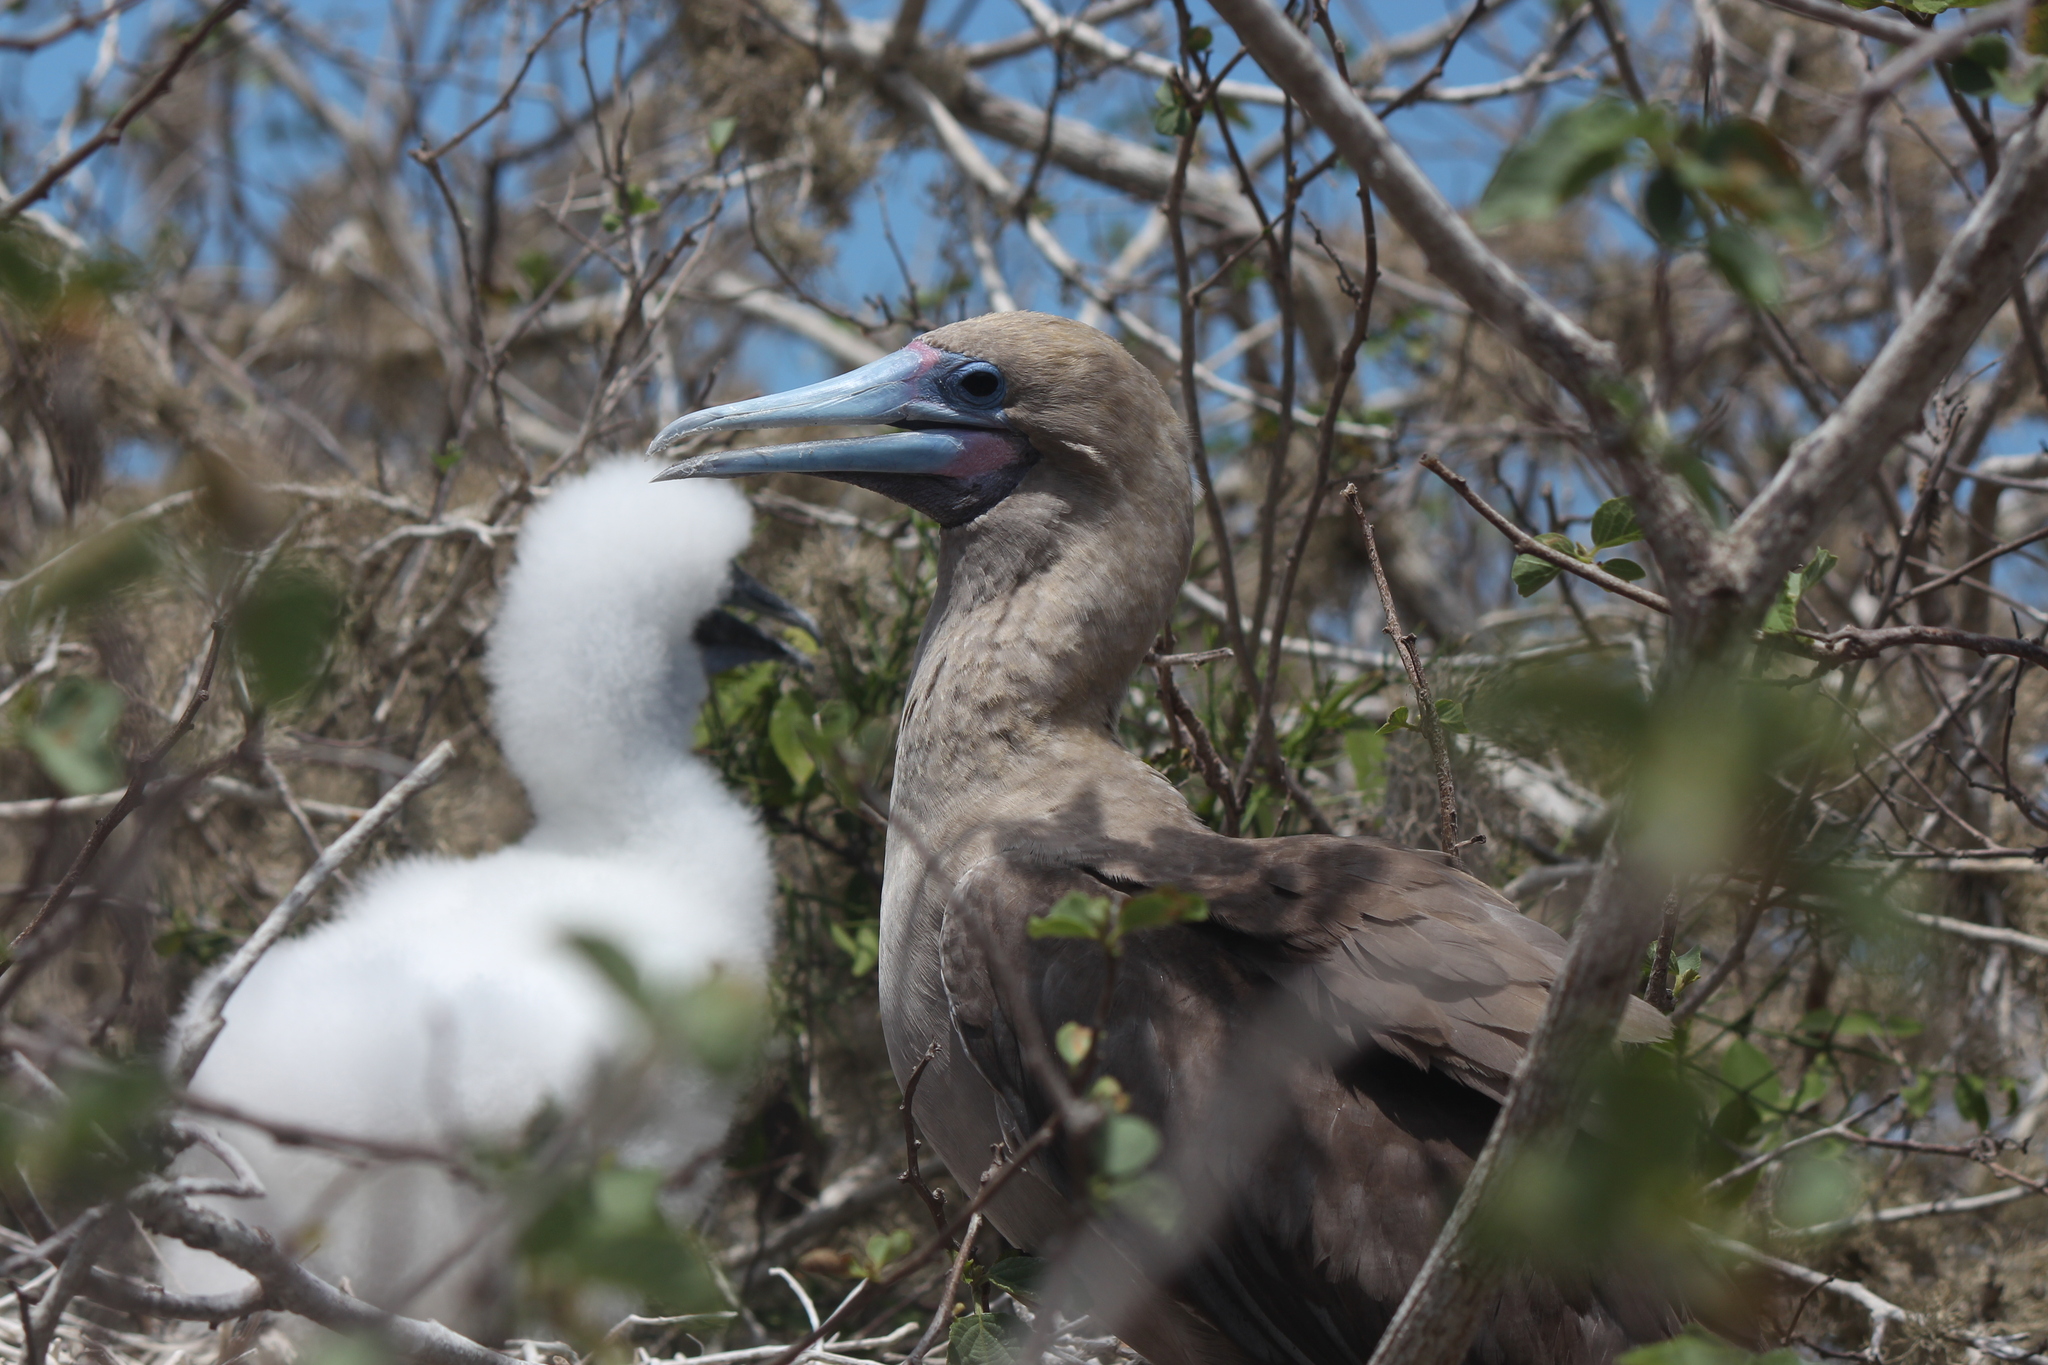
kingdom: Animalia
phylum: Chordata
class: Aves
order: Suliformes
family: Sulidae
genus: Sula
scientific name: Sula sula
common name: Red-footed booby
